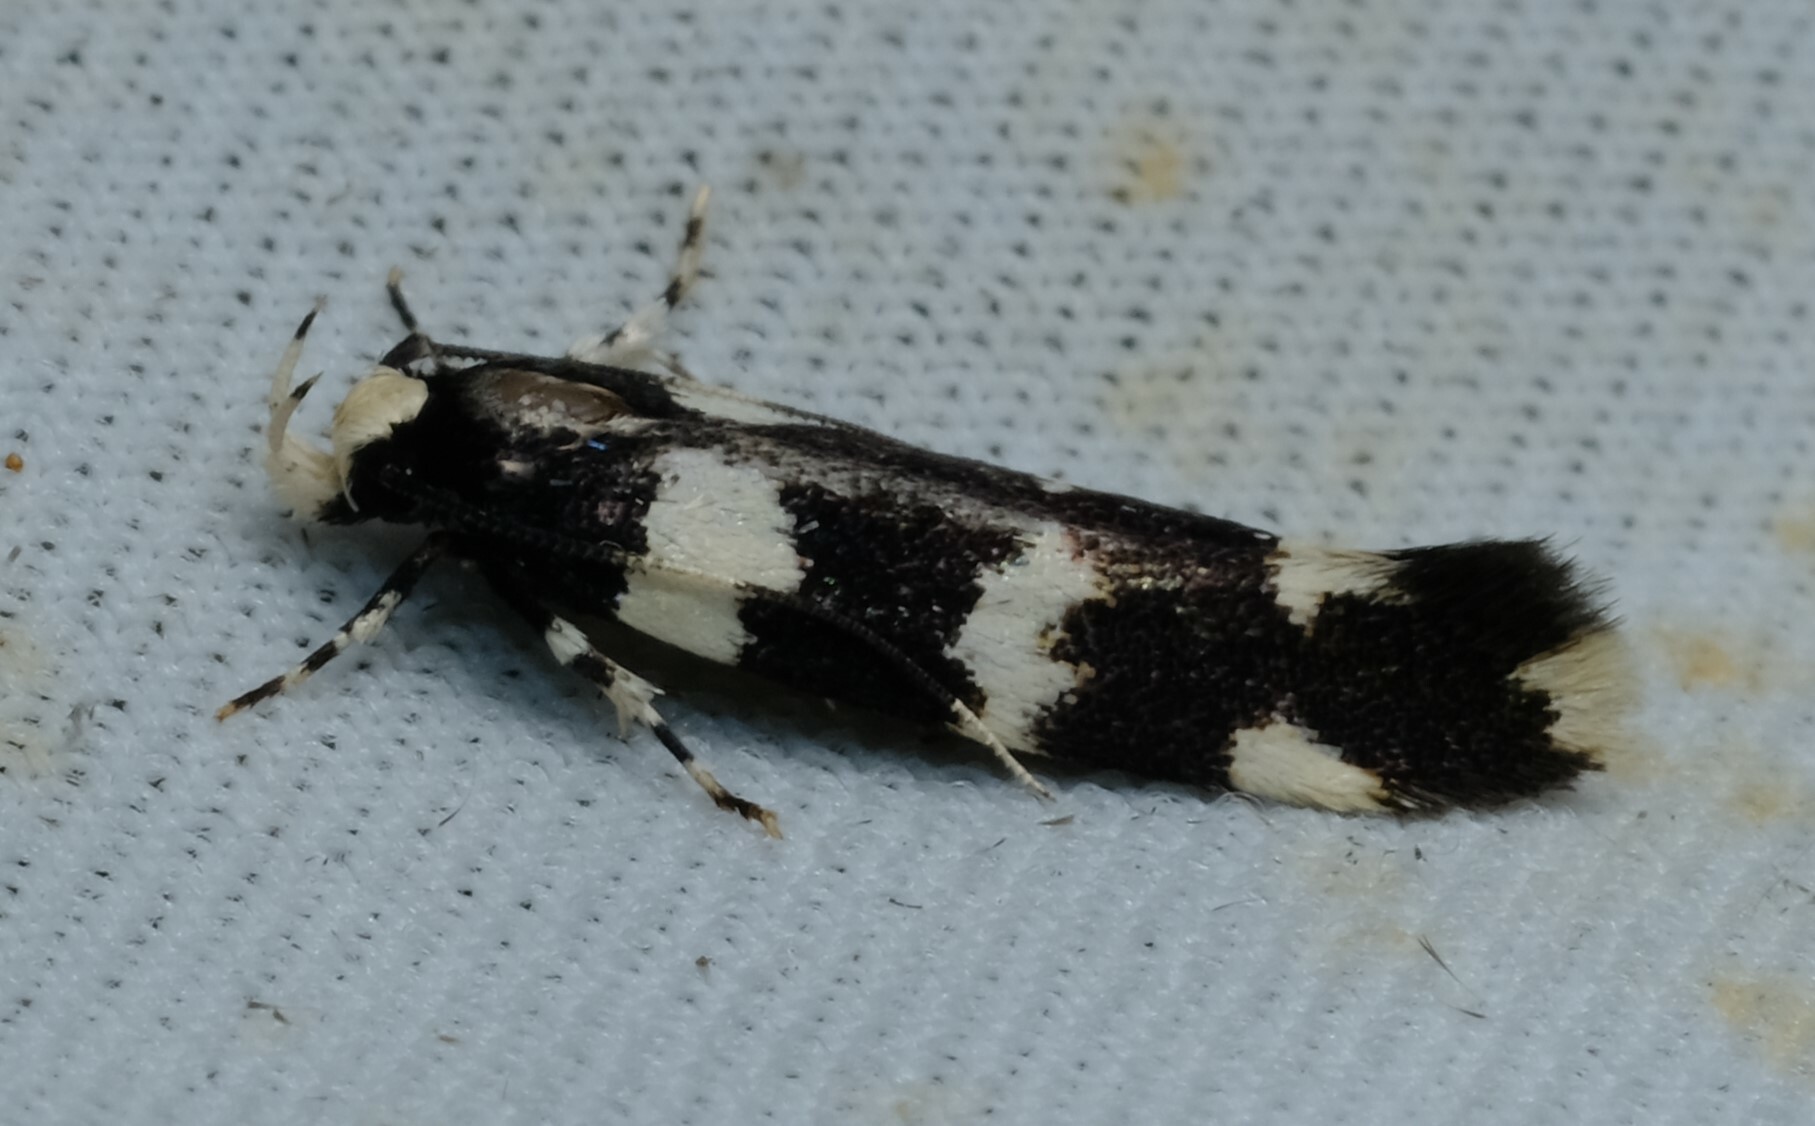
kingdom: Animalia
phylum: Arthropoda
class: Insecta
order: Lepidoptera
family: Cosmopterigidae
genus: Limnaecia
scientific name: Limnaecia scoliosema
